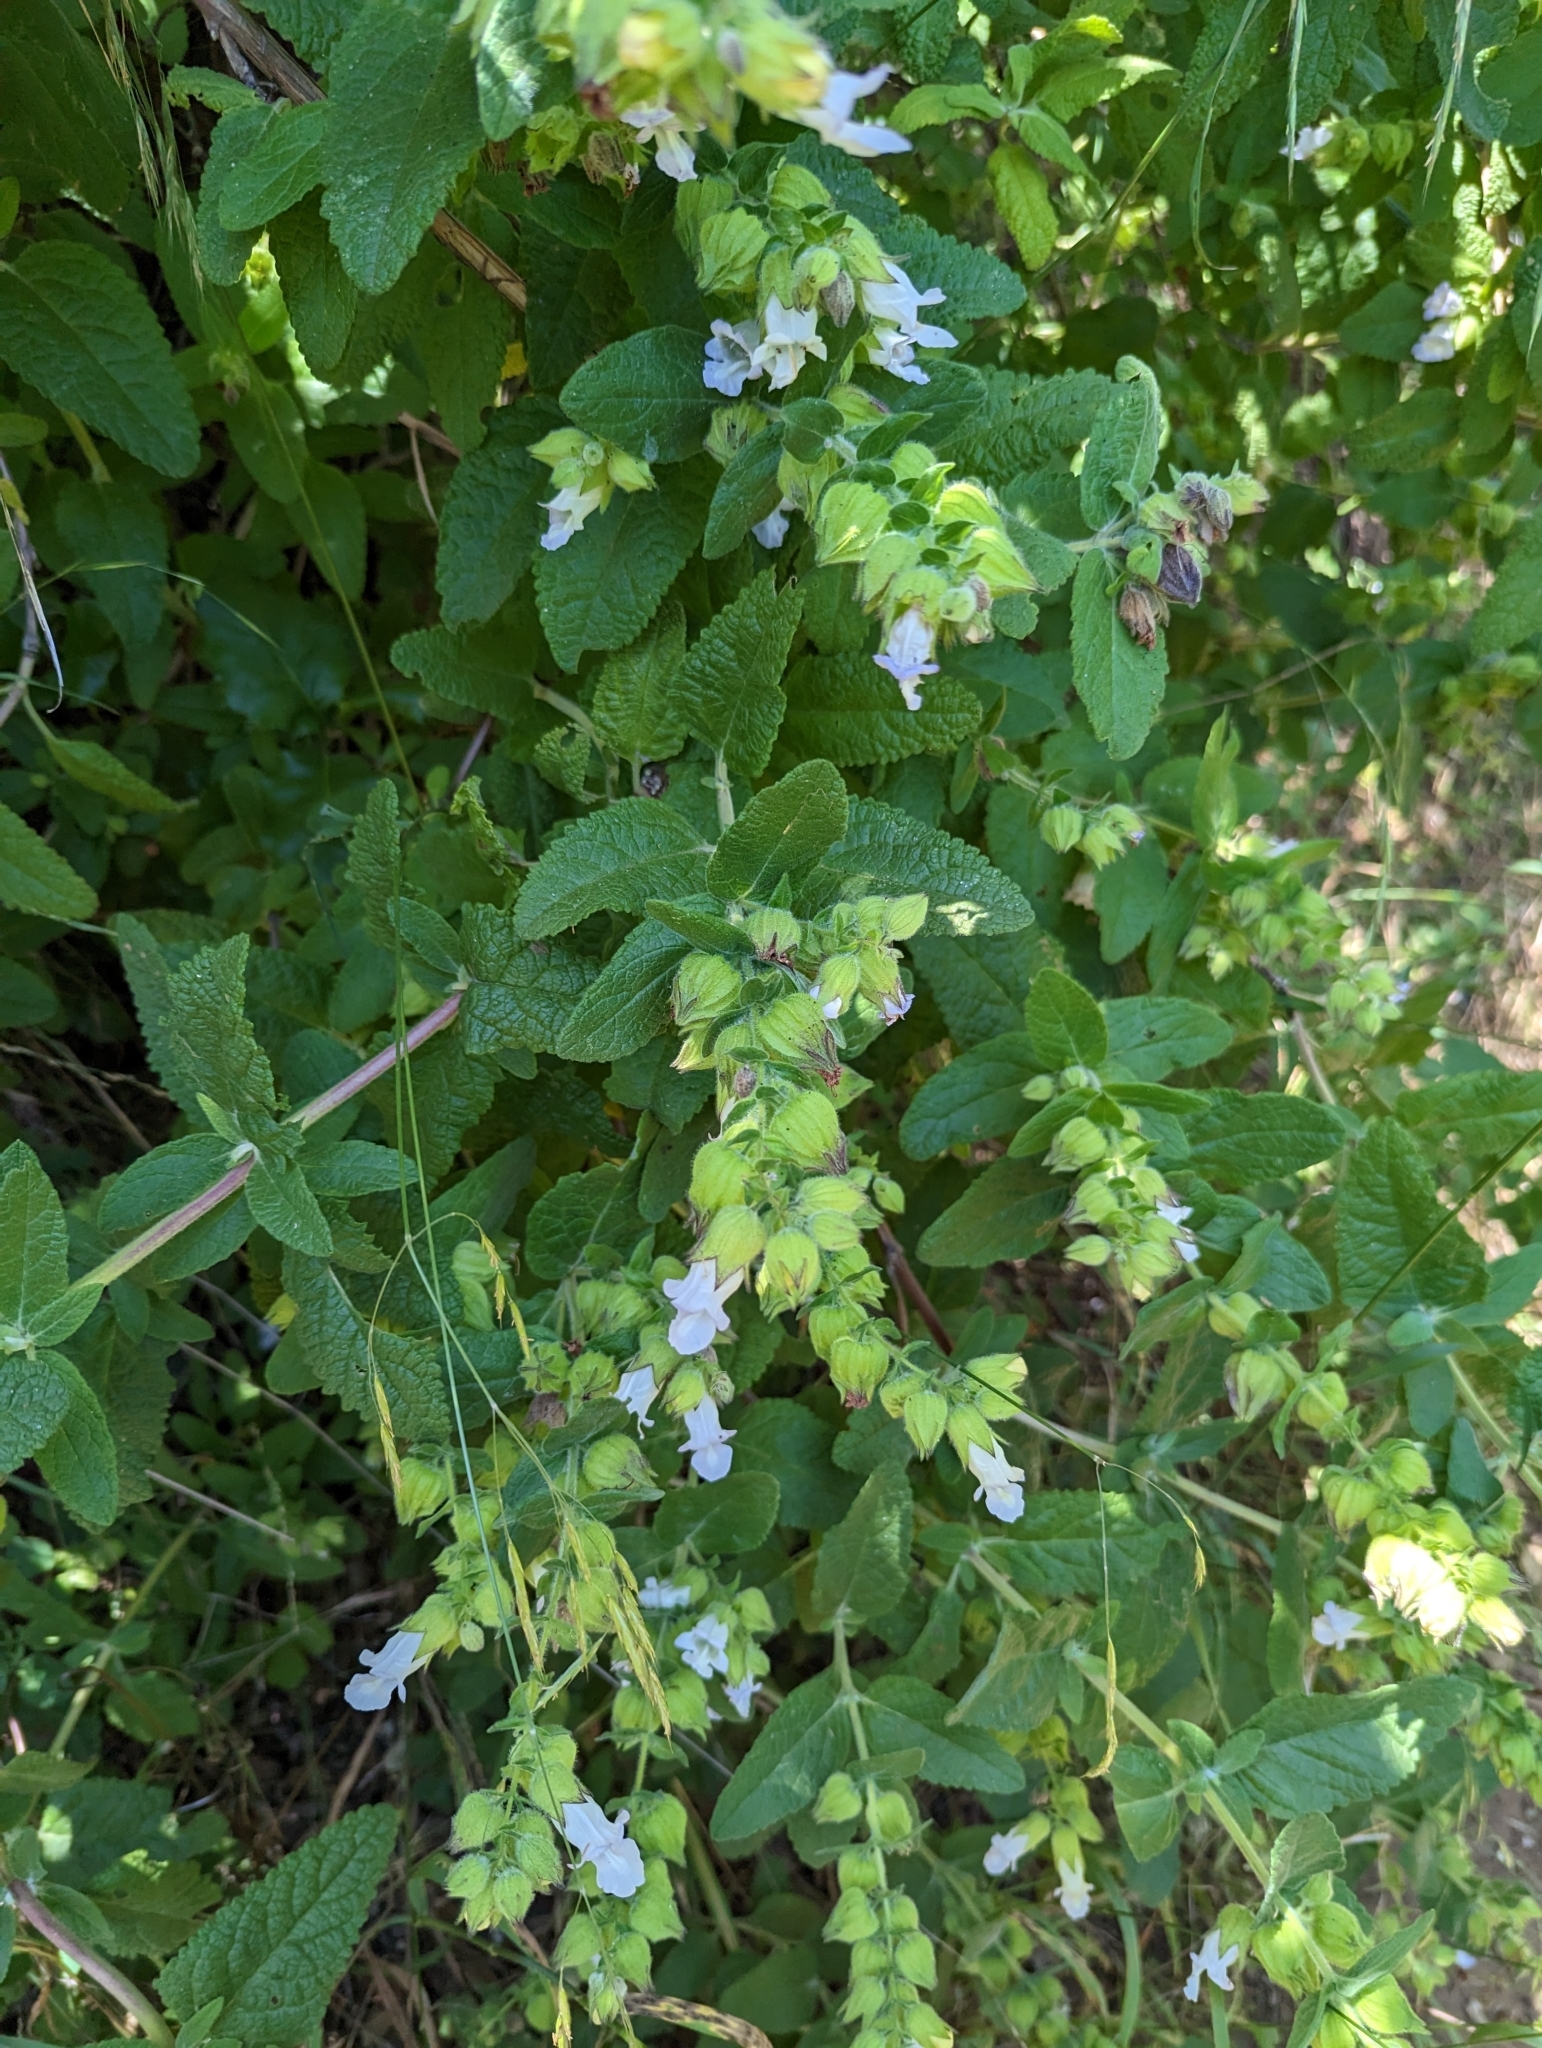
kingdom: Plantae
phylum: Tracheophyta
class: Magnoliopsida
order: Lamiales
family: Lamiaceae
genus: Lepechinia
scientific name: Lepechinia calycina
